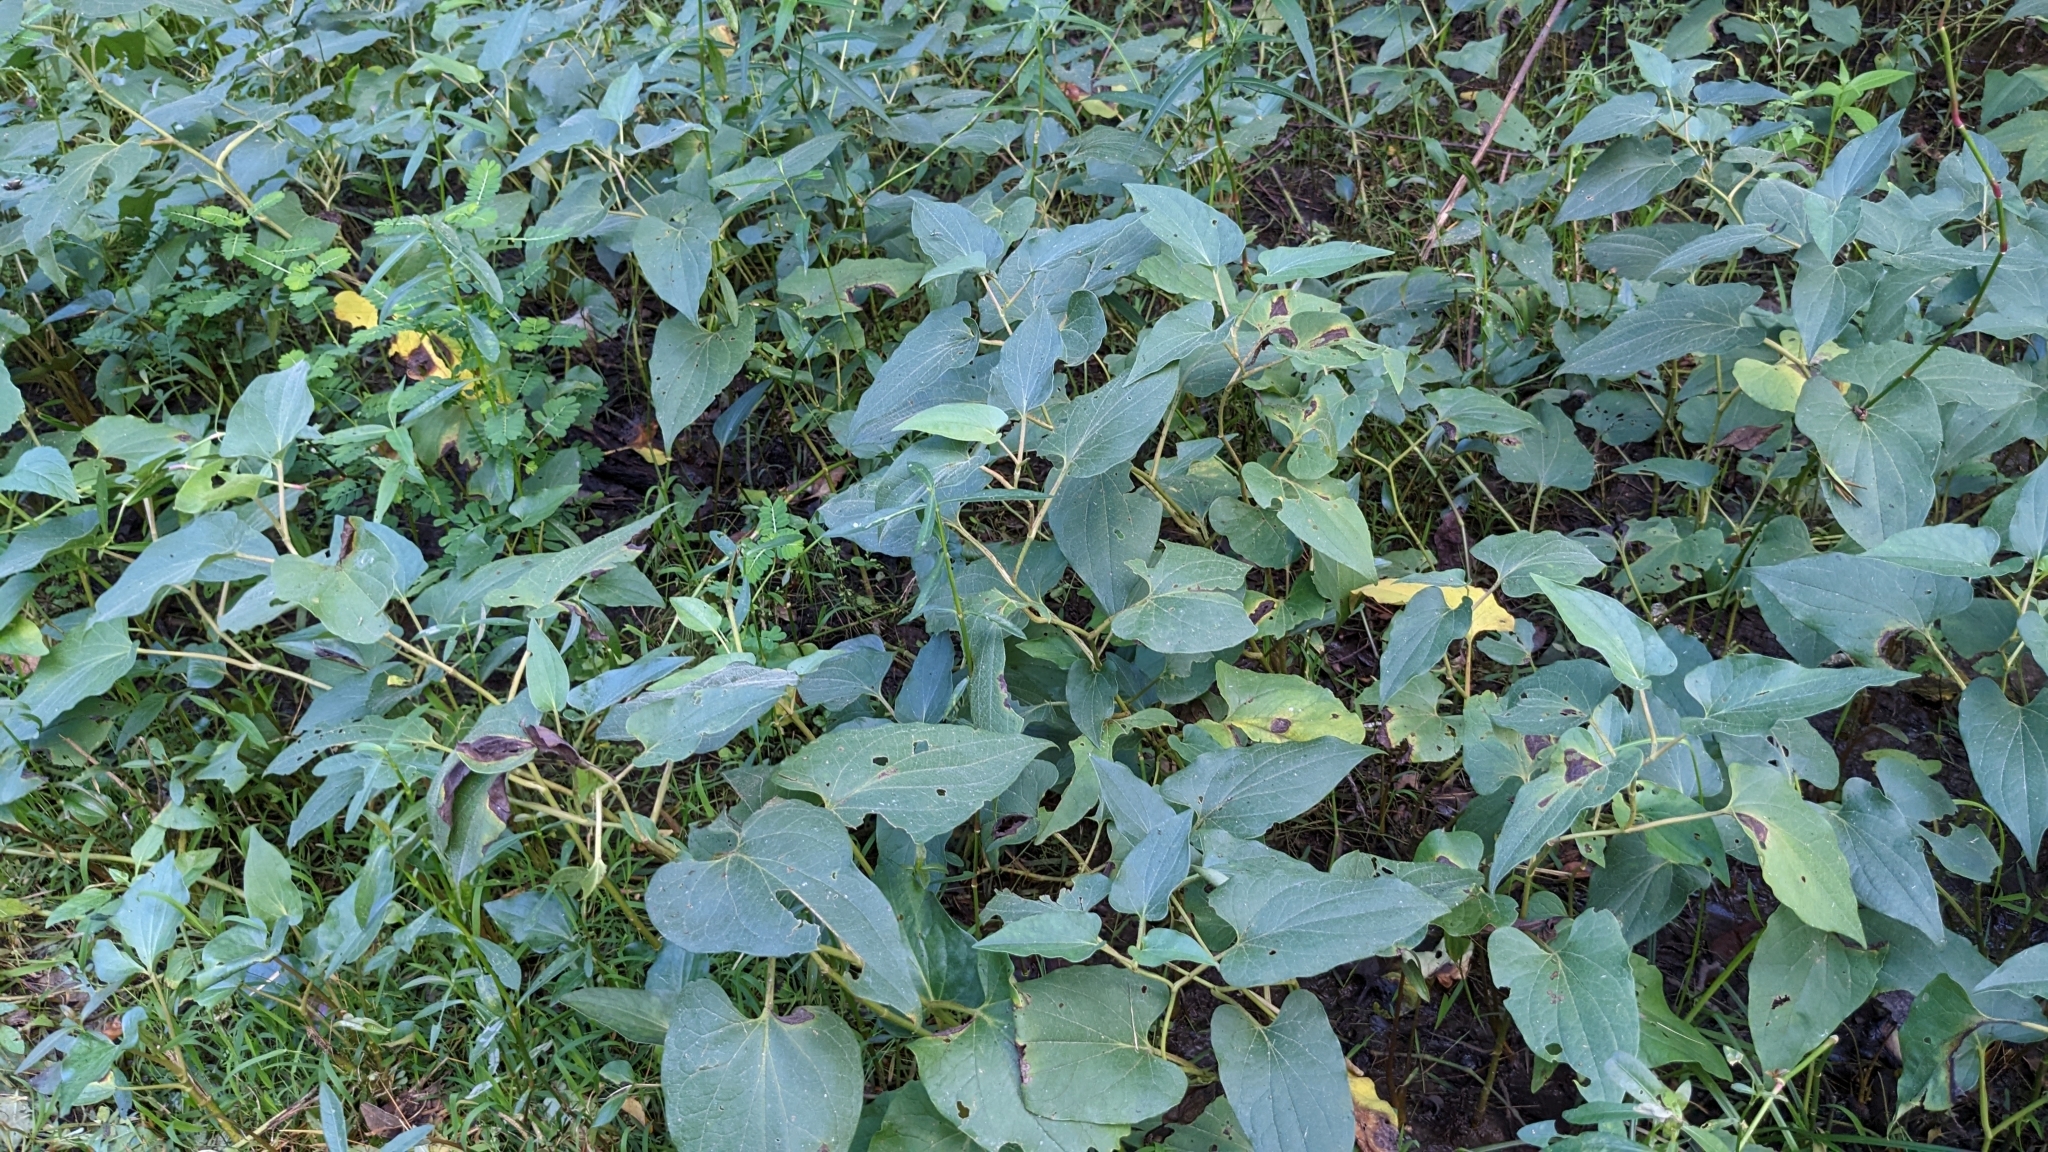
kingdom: Plantae
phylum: Tracheophyta
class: Magnoliopsida
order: Piperales
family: Saururaceae
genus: Saururus
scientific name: Saururus cernuus
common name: Lizard's-tail
